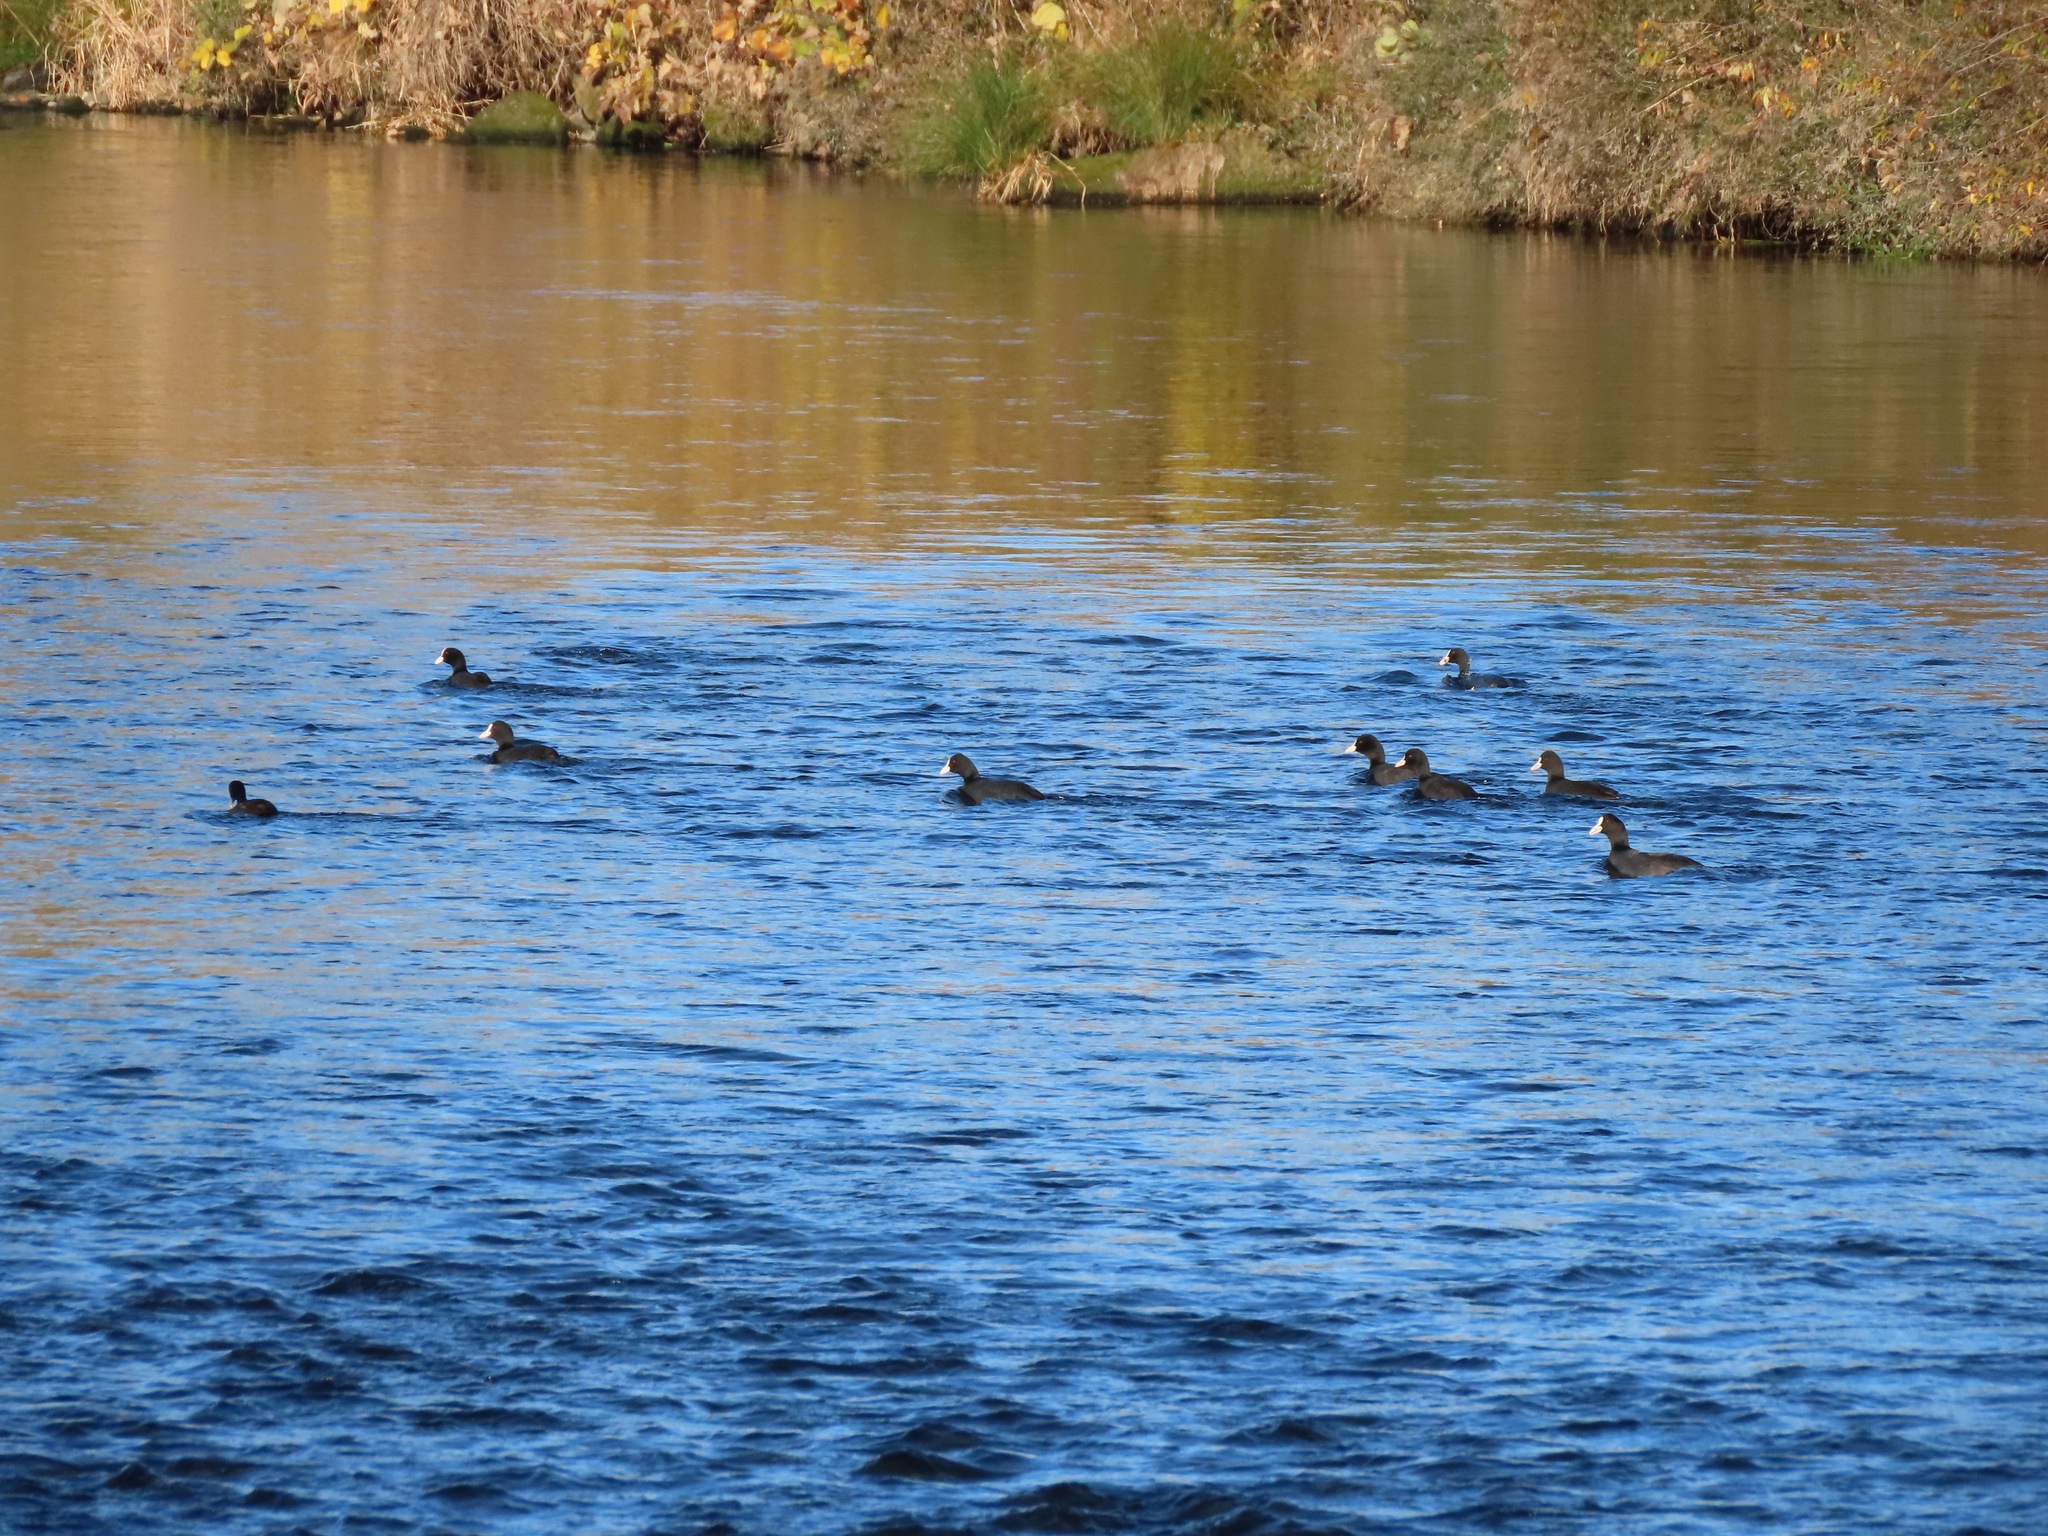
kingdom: Animalia
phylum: Chordata
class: Aves
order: Gruiformes
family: Rallidae
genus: Fulica
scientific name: Fulica atra
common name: Eurasian coot
